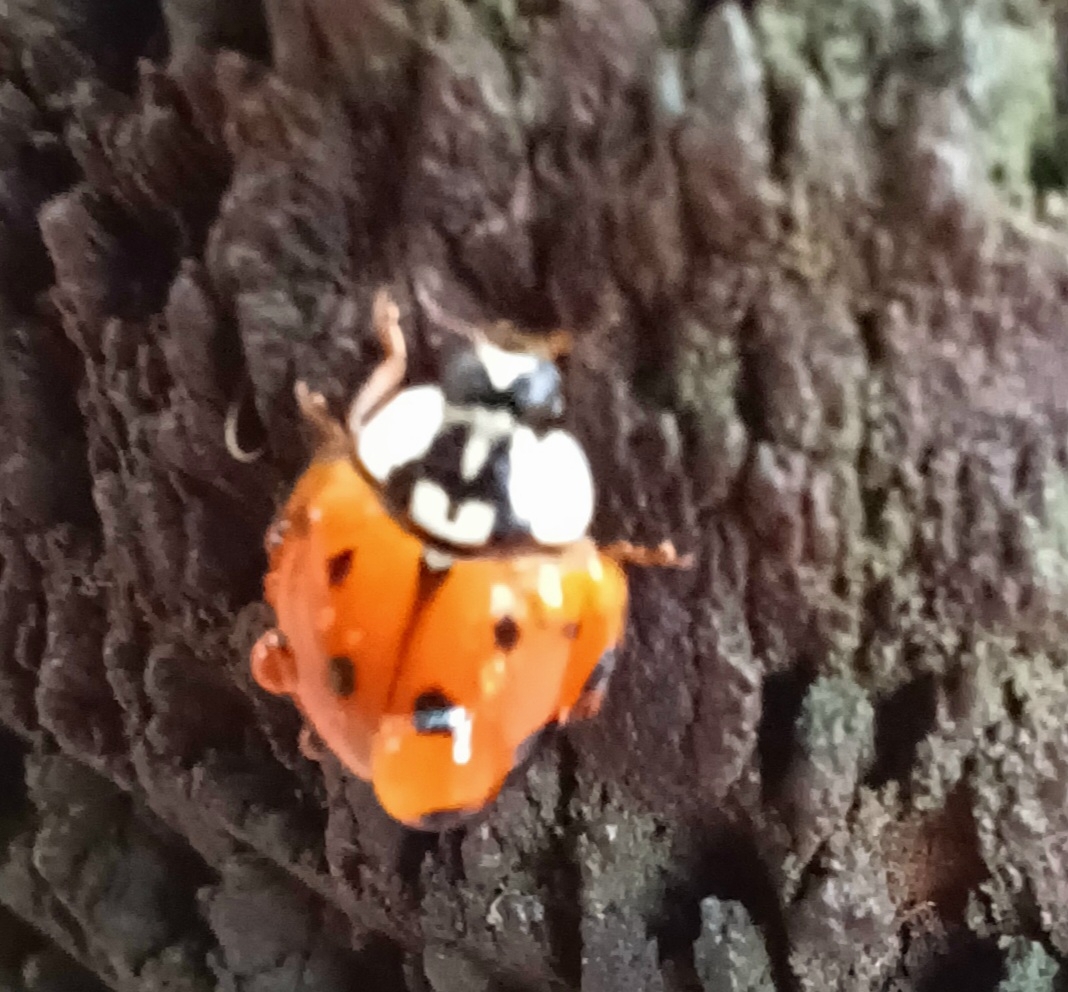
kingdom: Animalia
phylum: Arthropoda
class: Insecta
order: Coleoptera
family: Coccinellidae
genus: Harmonia
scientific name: Harmonia axyridis
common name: Harlequin ladybird
